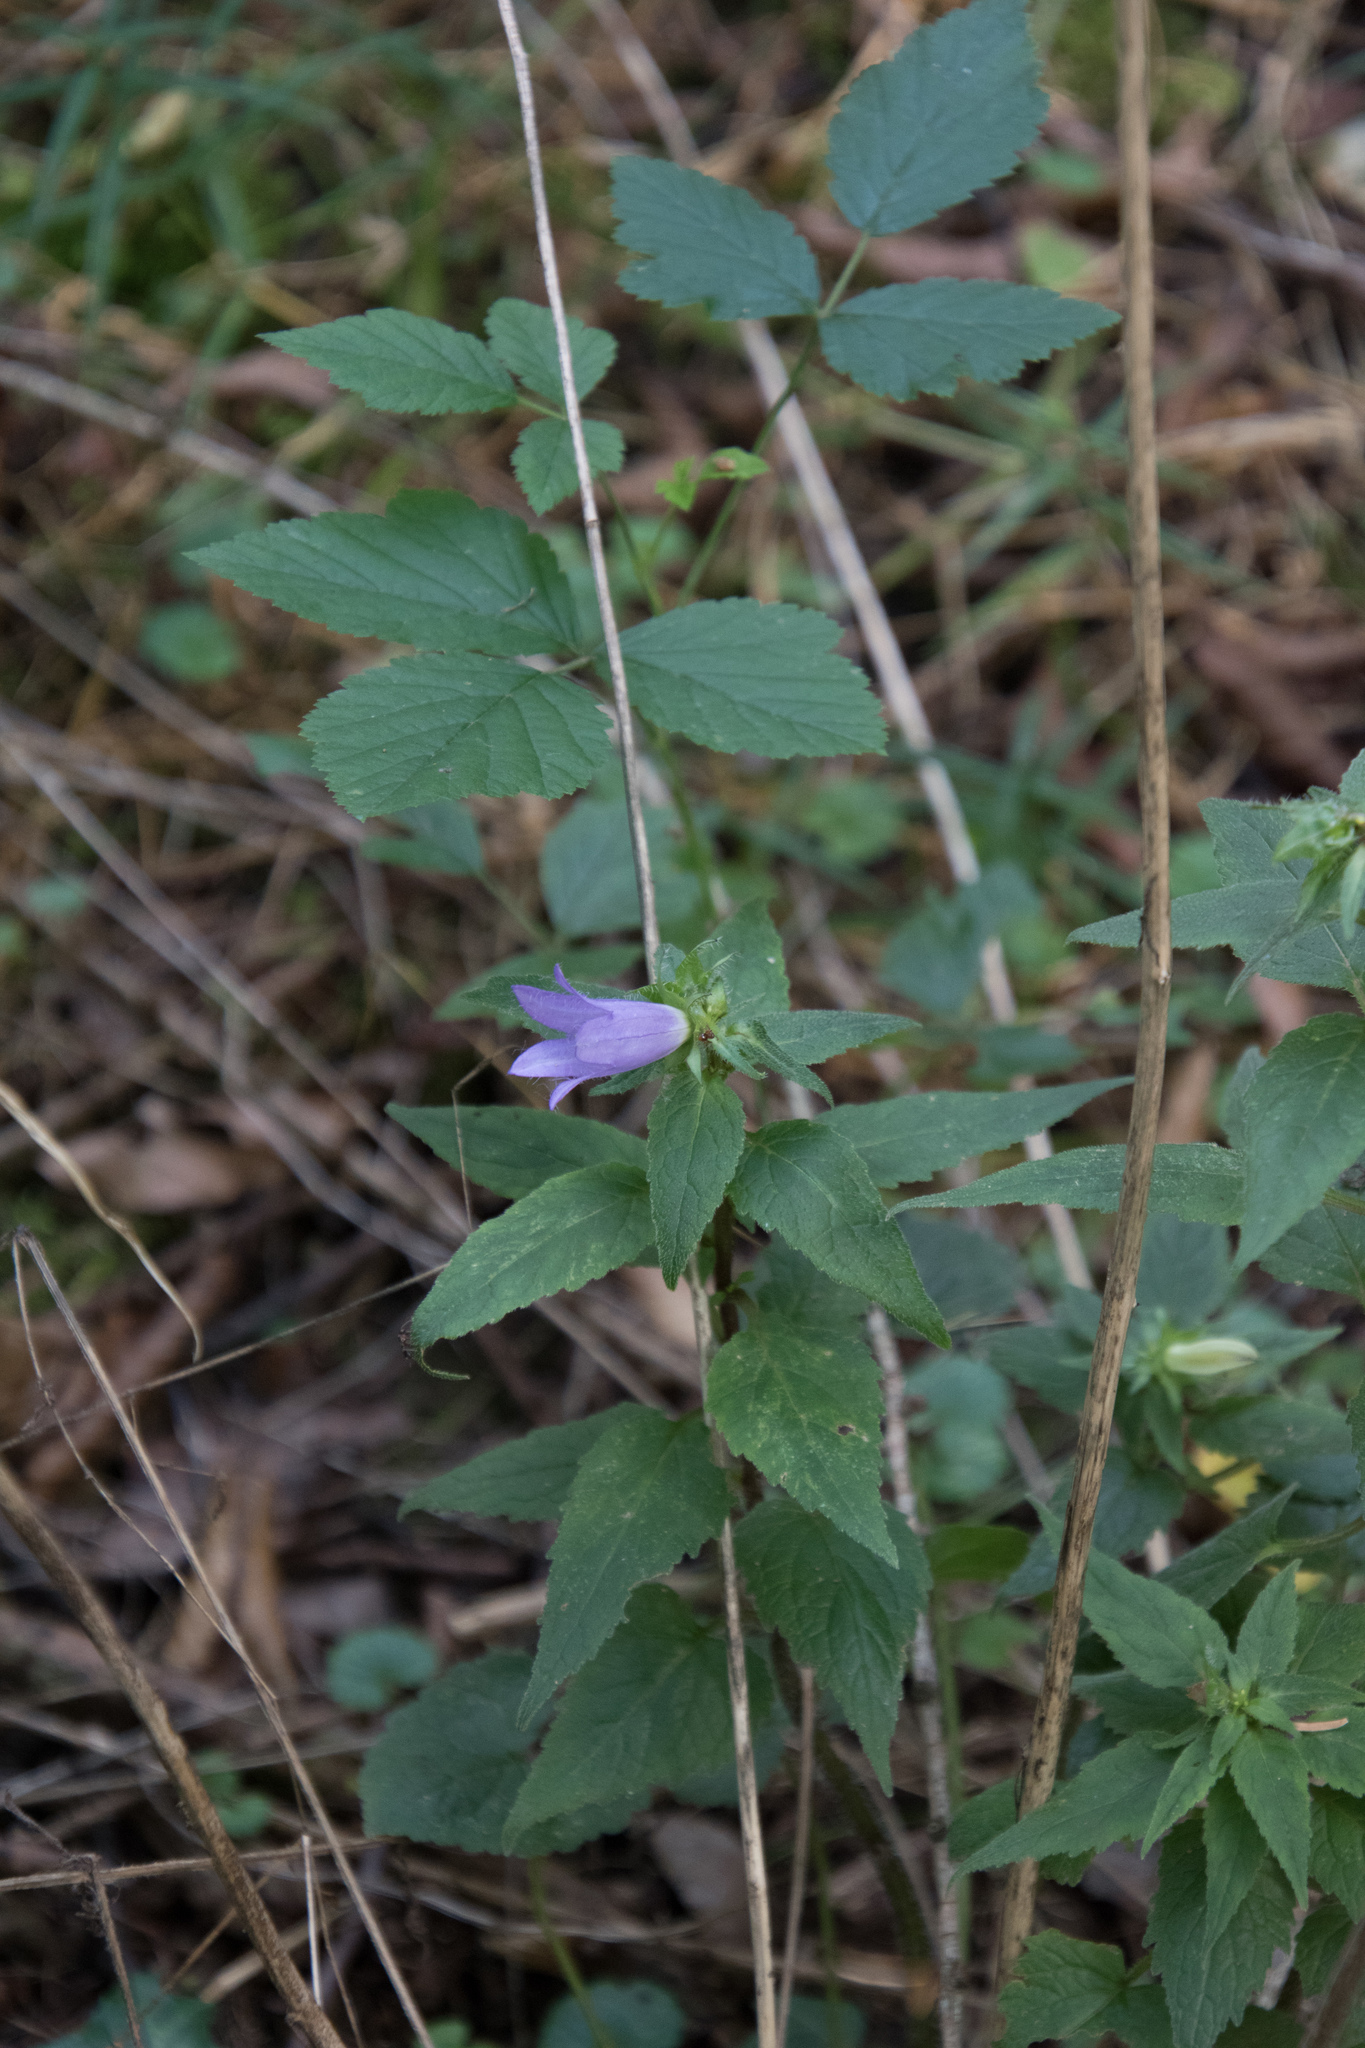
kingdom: Plantae
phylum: Tracheophyta
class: Magnoliopsida
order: Asterales
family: Campanulaceae
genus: Campanula
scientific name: Campanula trachelium
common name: Nettle-leaved bellflower
